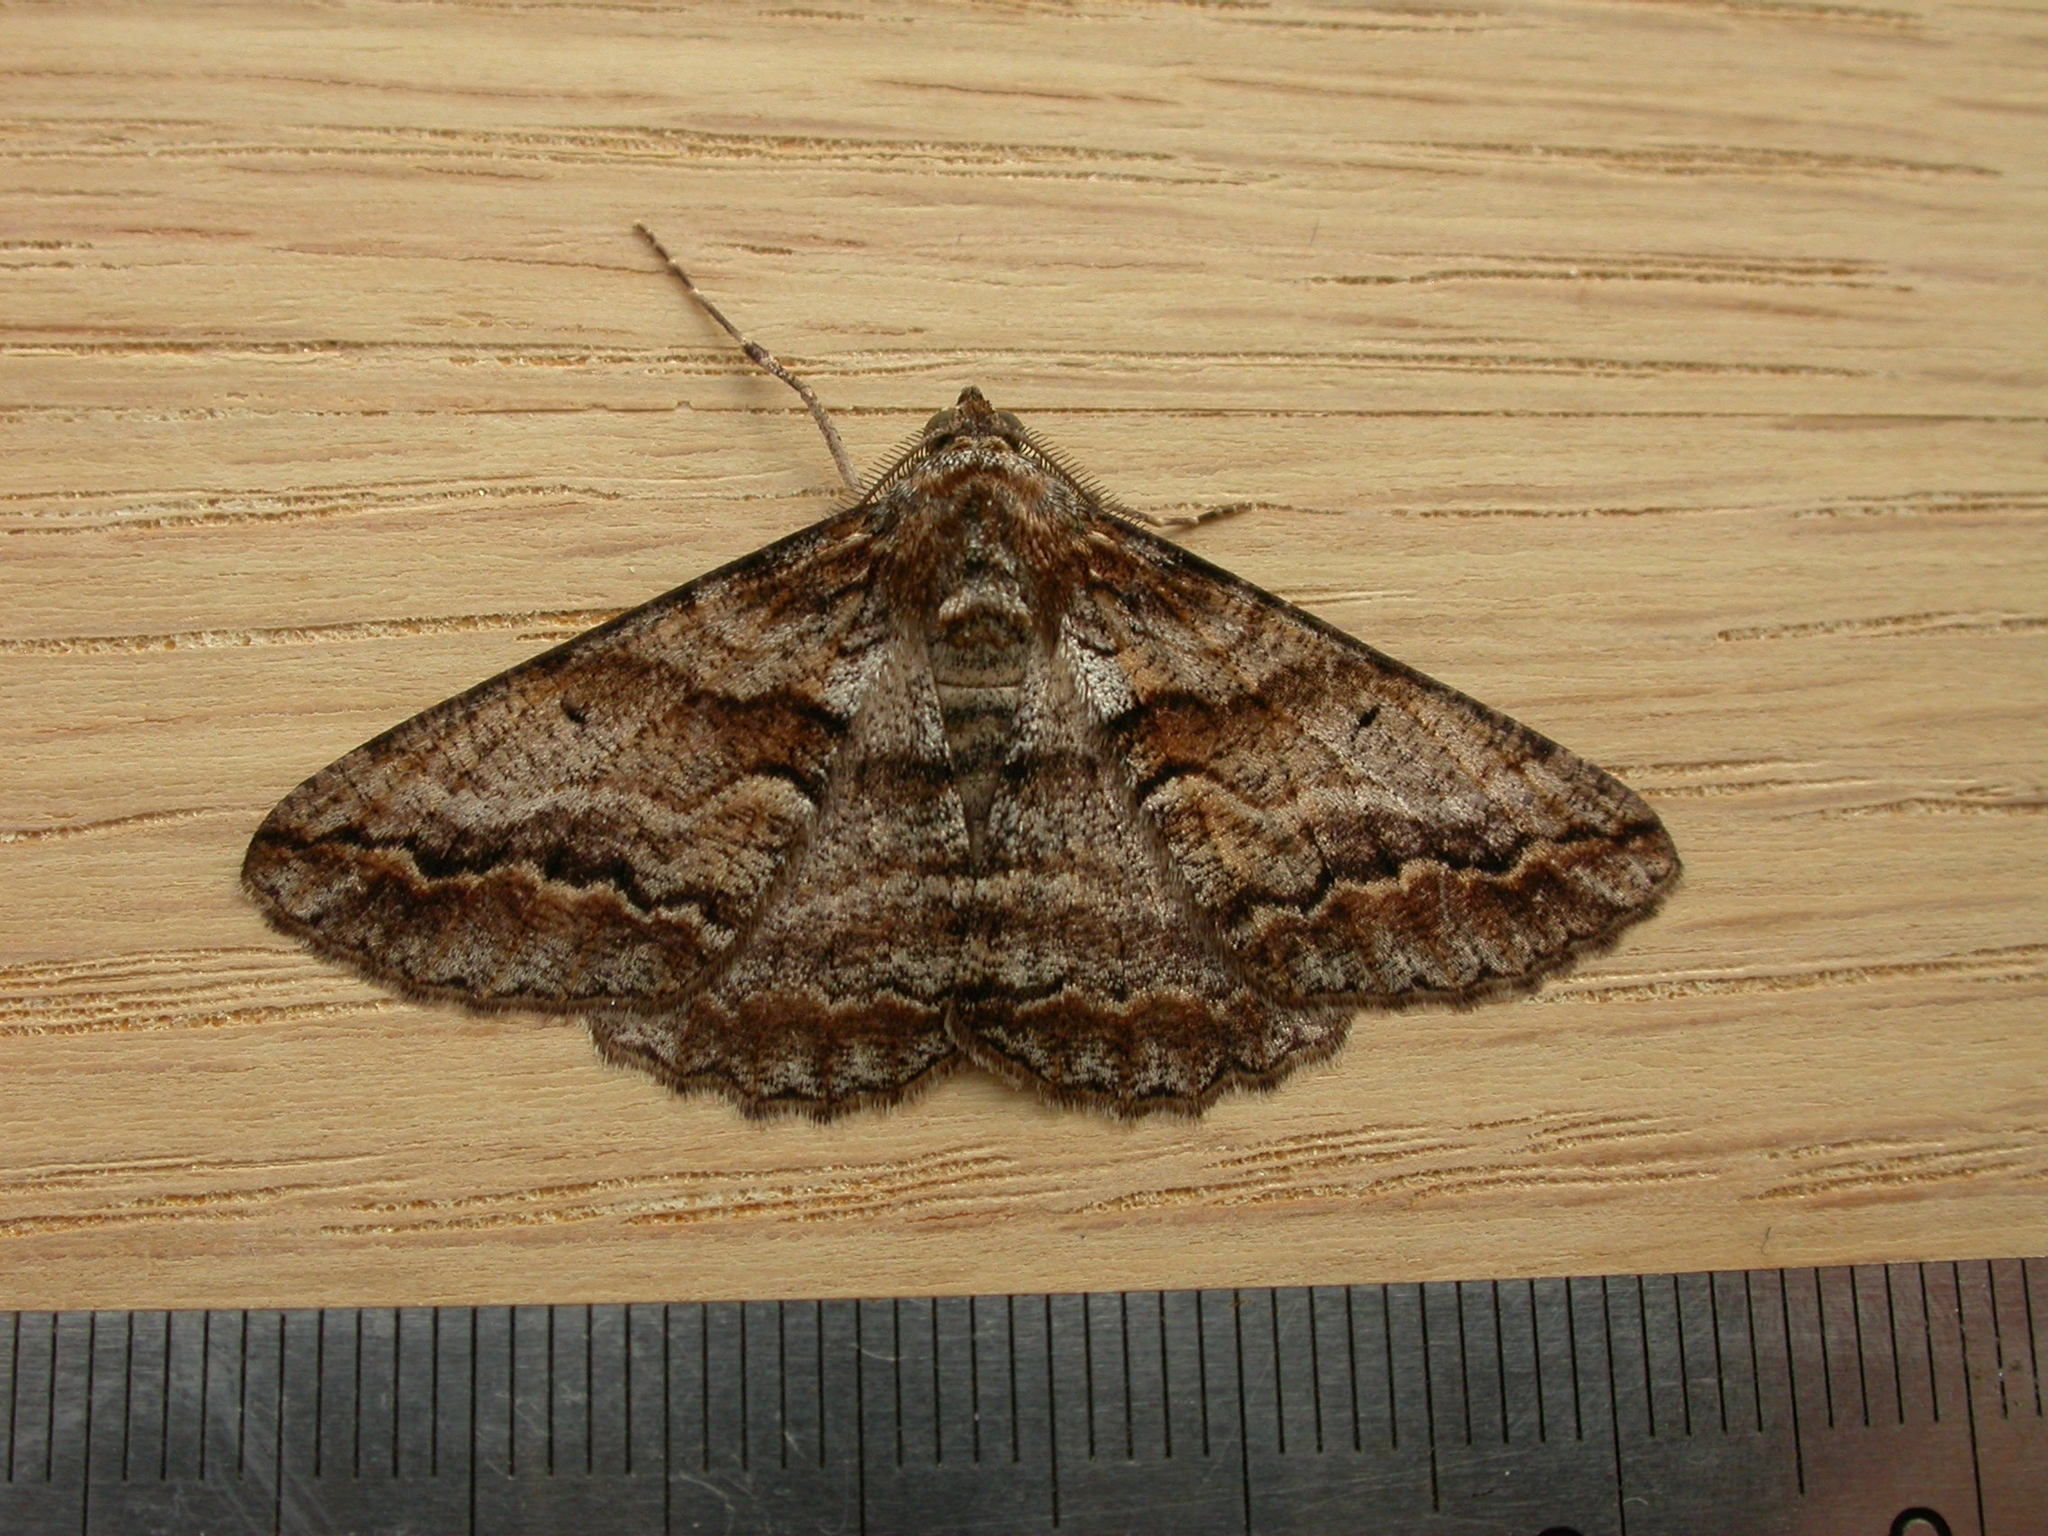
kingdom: Animalia
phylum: Arthropoda
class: Insecta
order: Lepidoptera
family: Geometridae
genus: Gastrinodes
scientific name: Gastrinodes bitaeniaria
